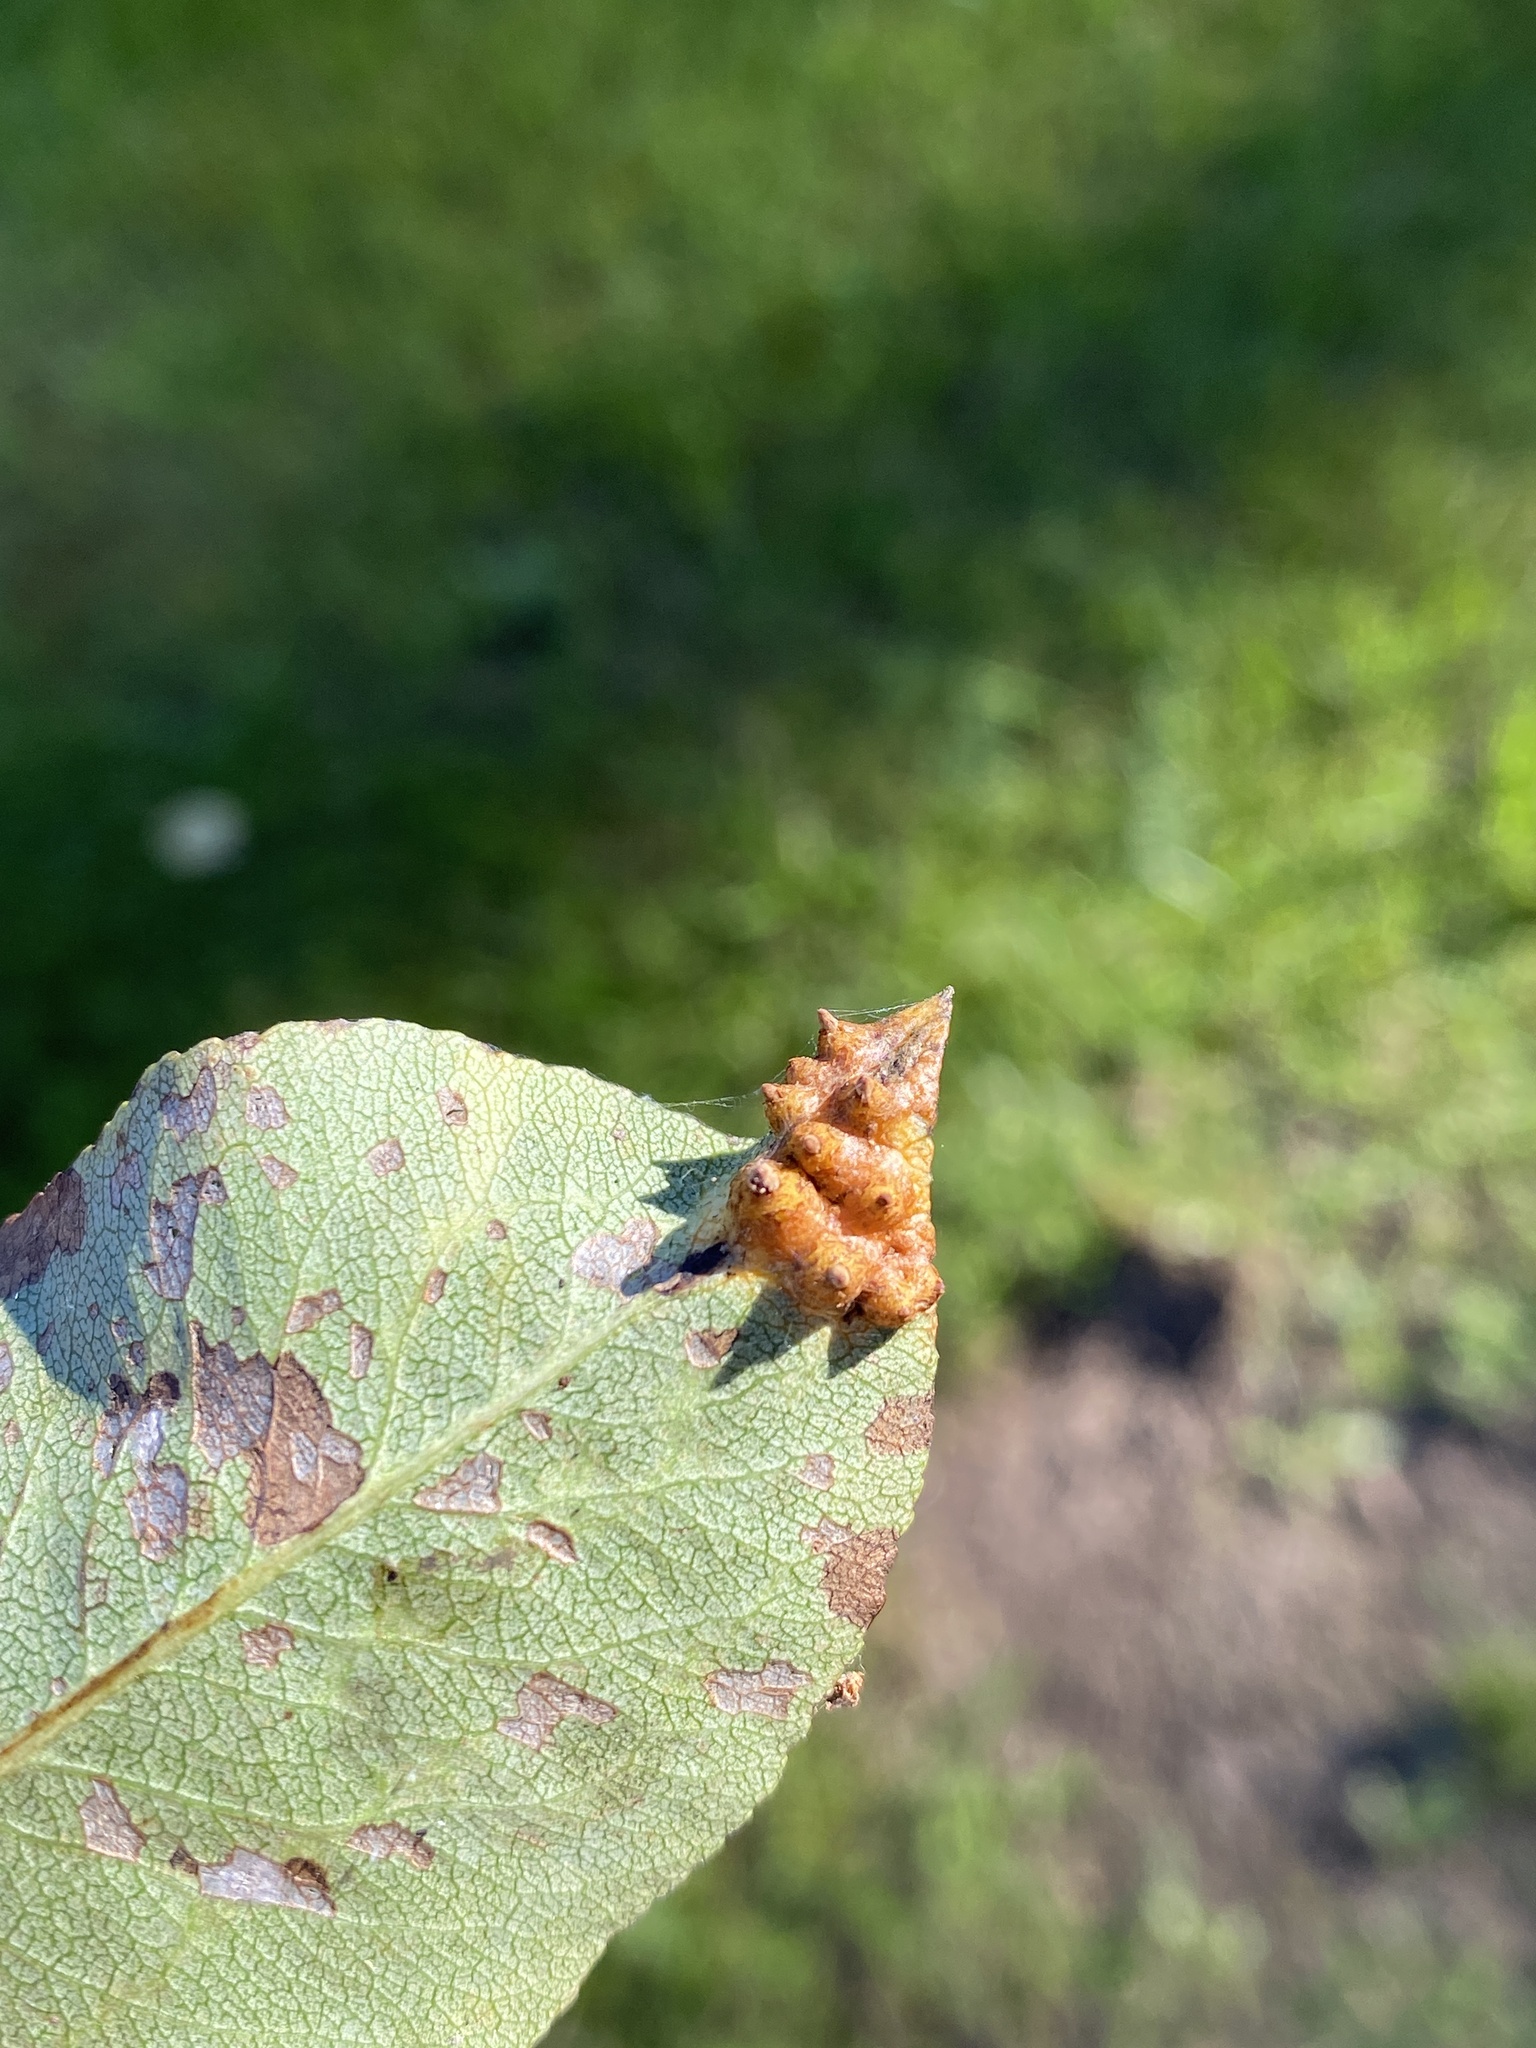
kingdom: Fungi
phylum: Basidiomycota
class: Pucciniomycetes
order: Pucciniales
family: Gymnosporangiaceae
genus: Gymnosporangium
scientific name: Gymnosporangium sabinae
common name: Pear trellis rust fungus
